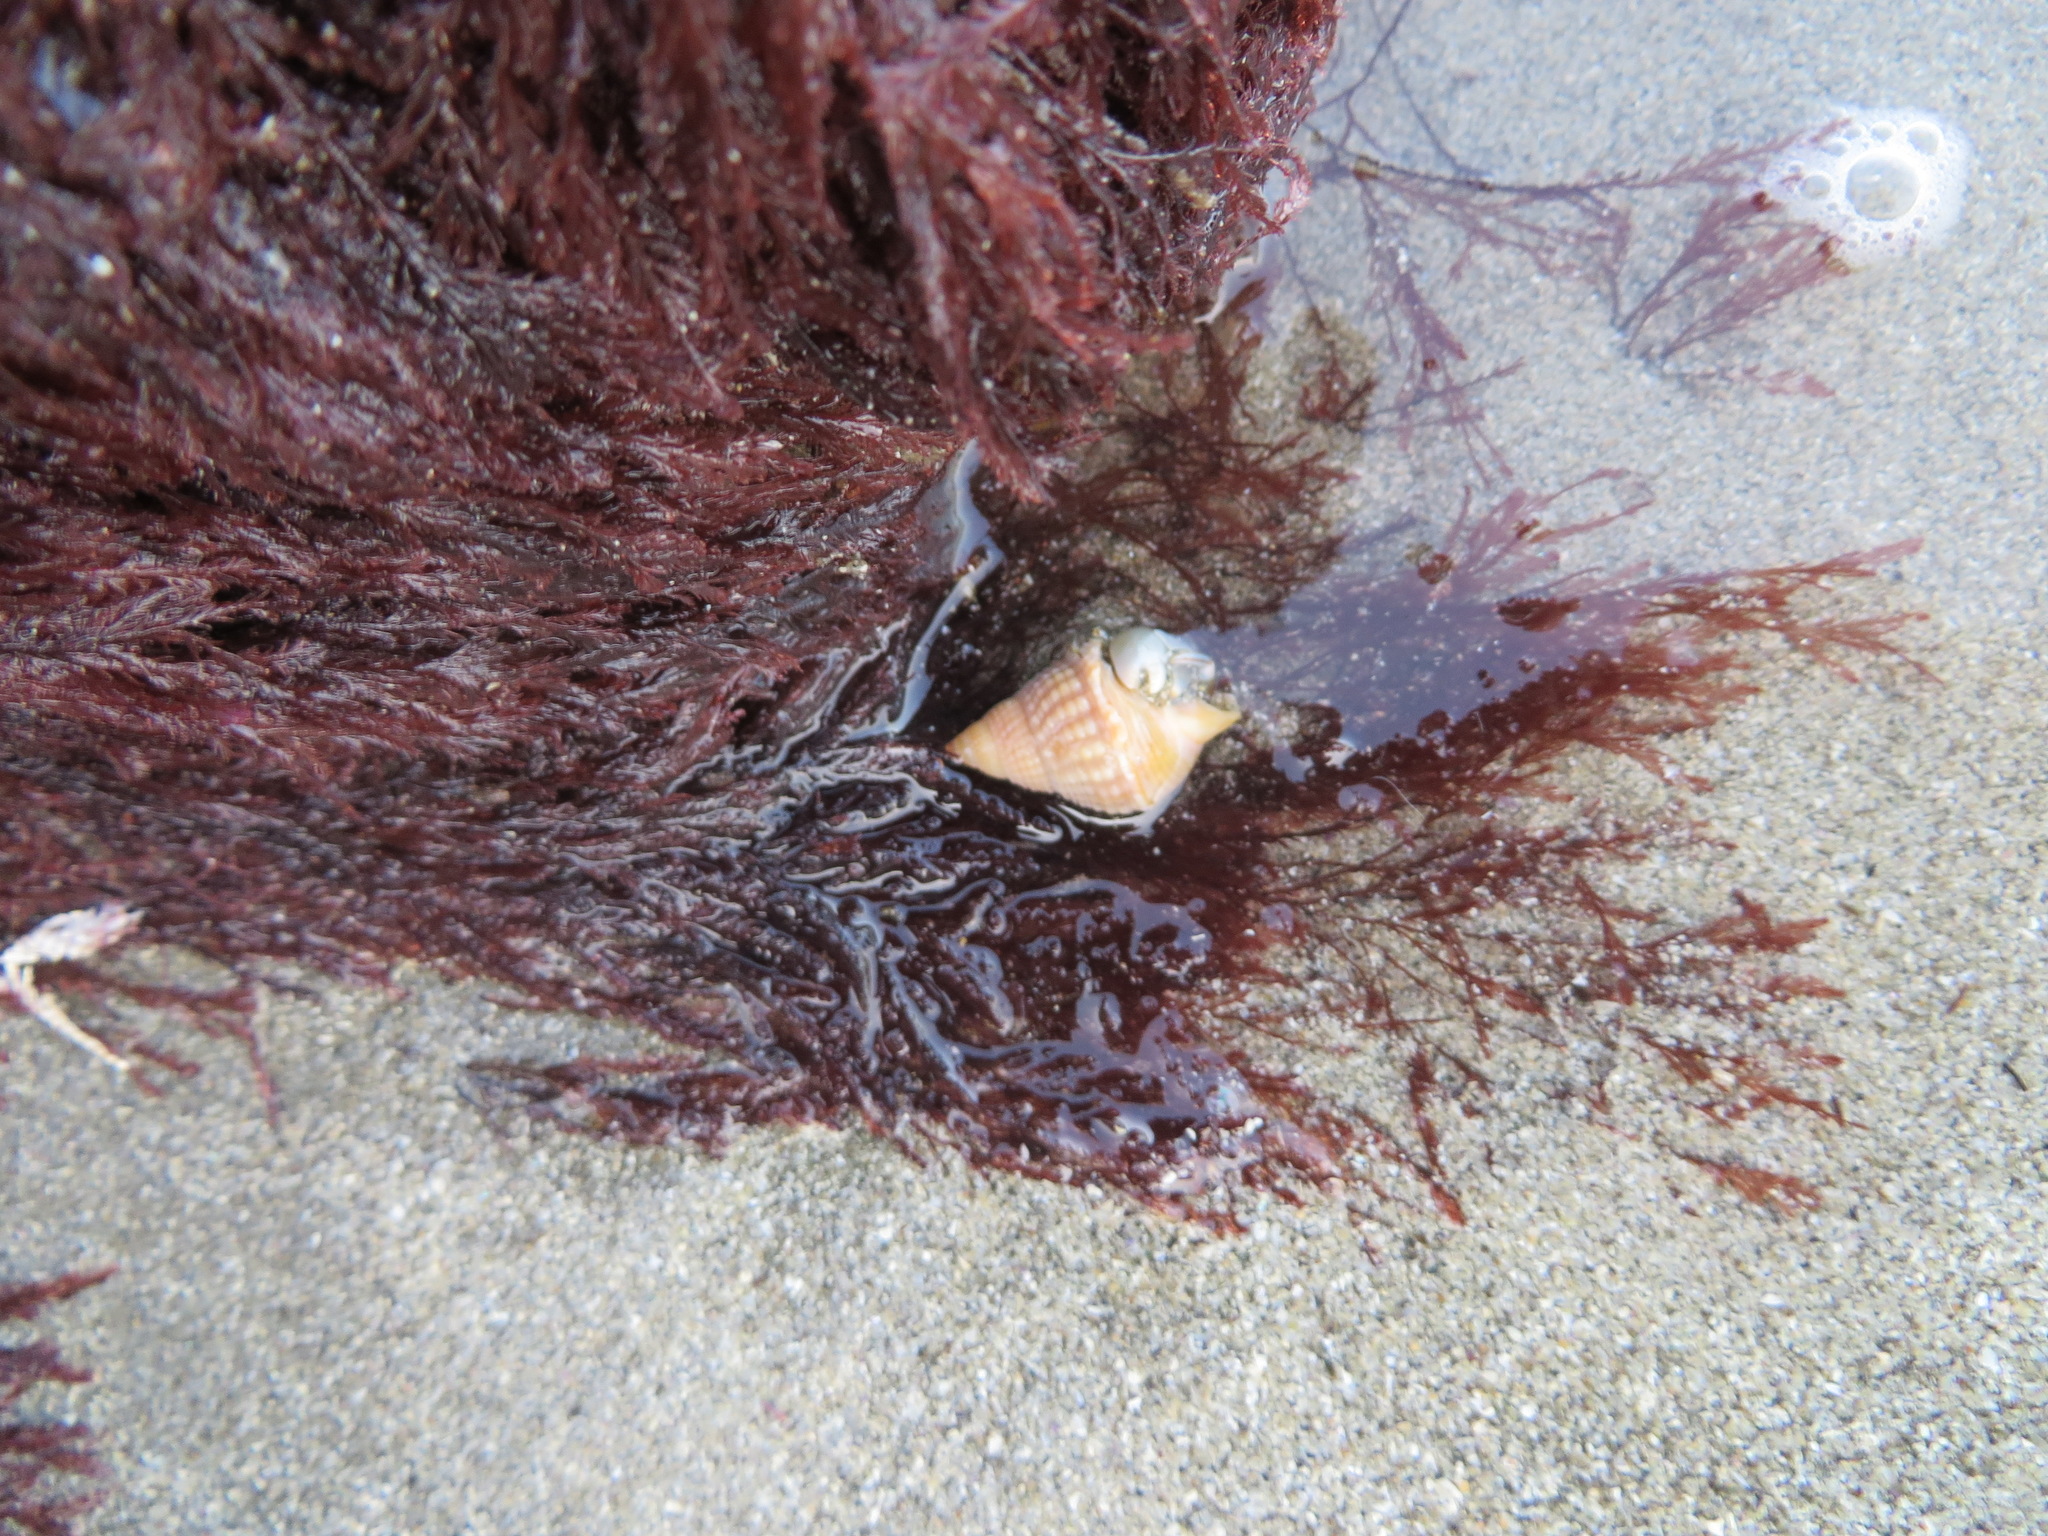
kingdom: Animalia
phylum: Mollusca
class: Gastropoda
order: Neogastropoda
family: Nassariidae
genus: Caesia
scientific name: Caesia fossata
